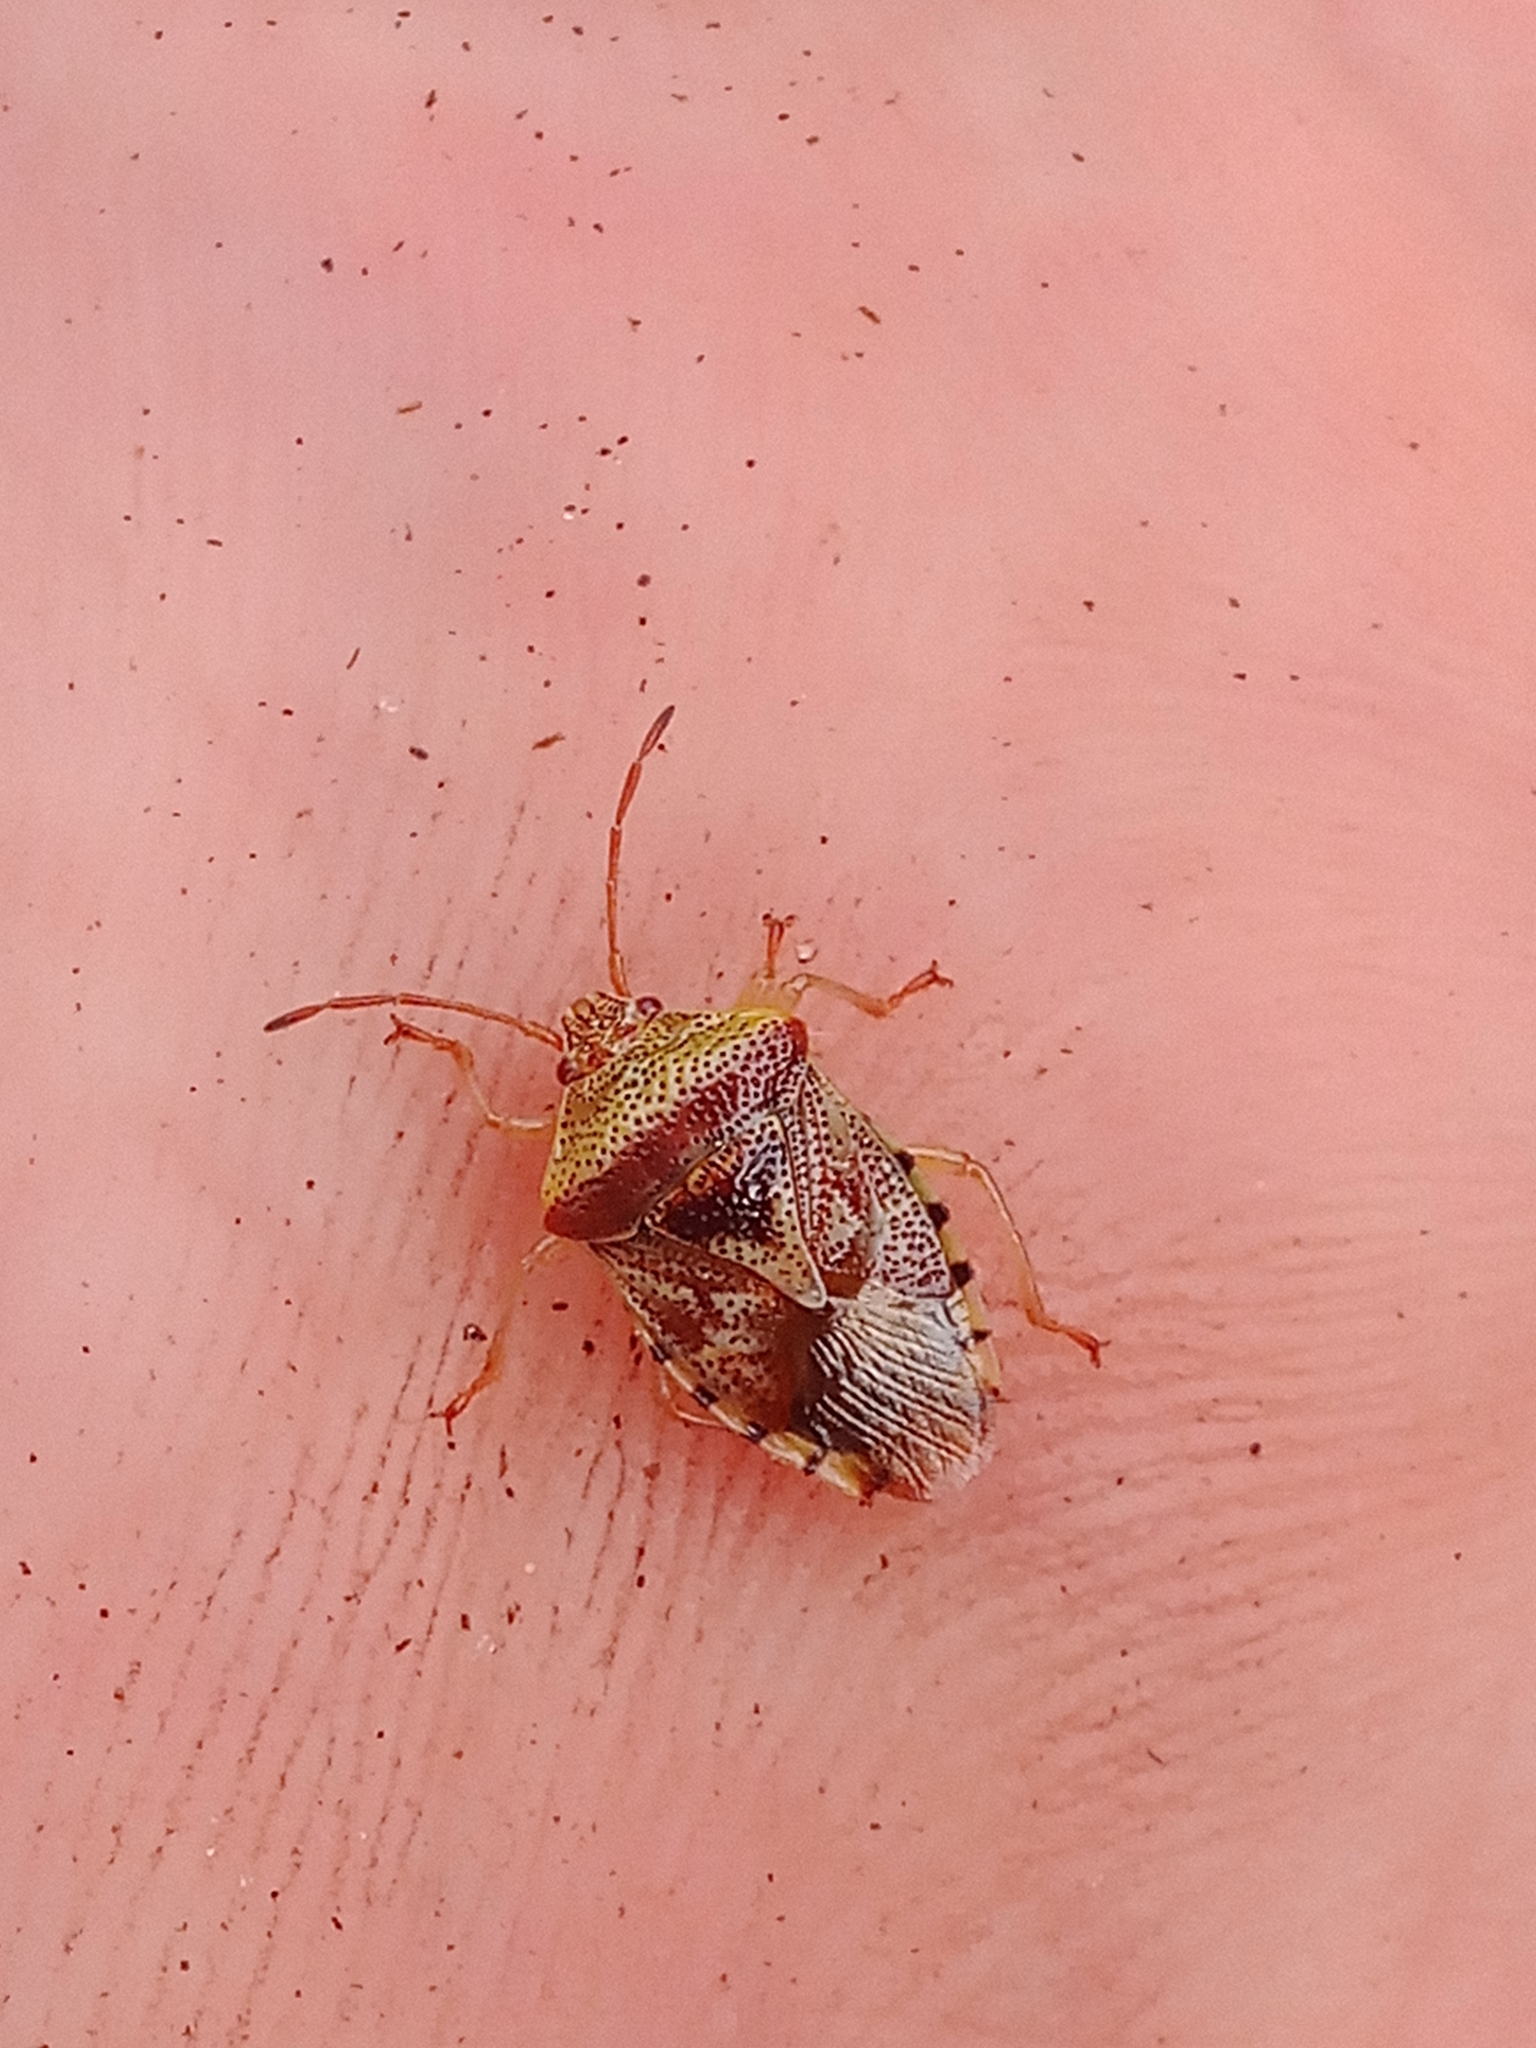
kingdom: Animalia
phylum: Arthropoda
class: Insecta
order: Hemiptera
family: Acanthosomatidae
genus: Elasmucha
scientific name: Elasmucha grisea
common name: Parent bug
